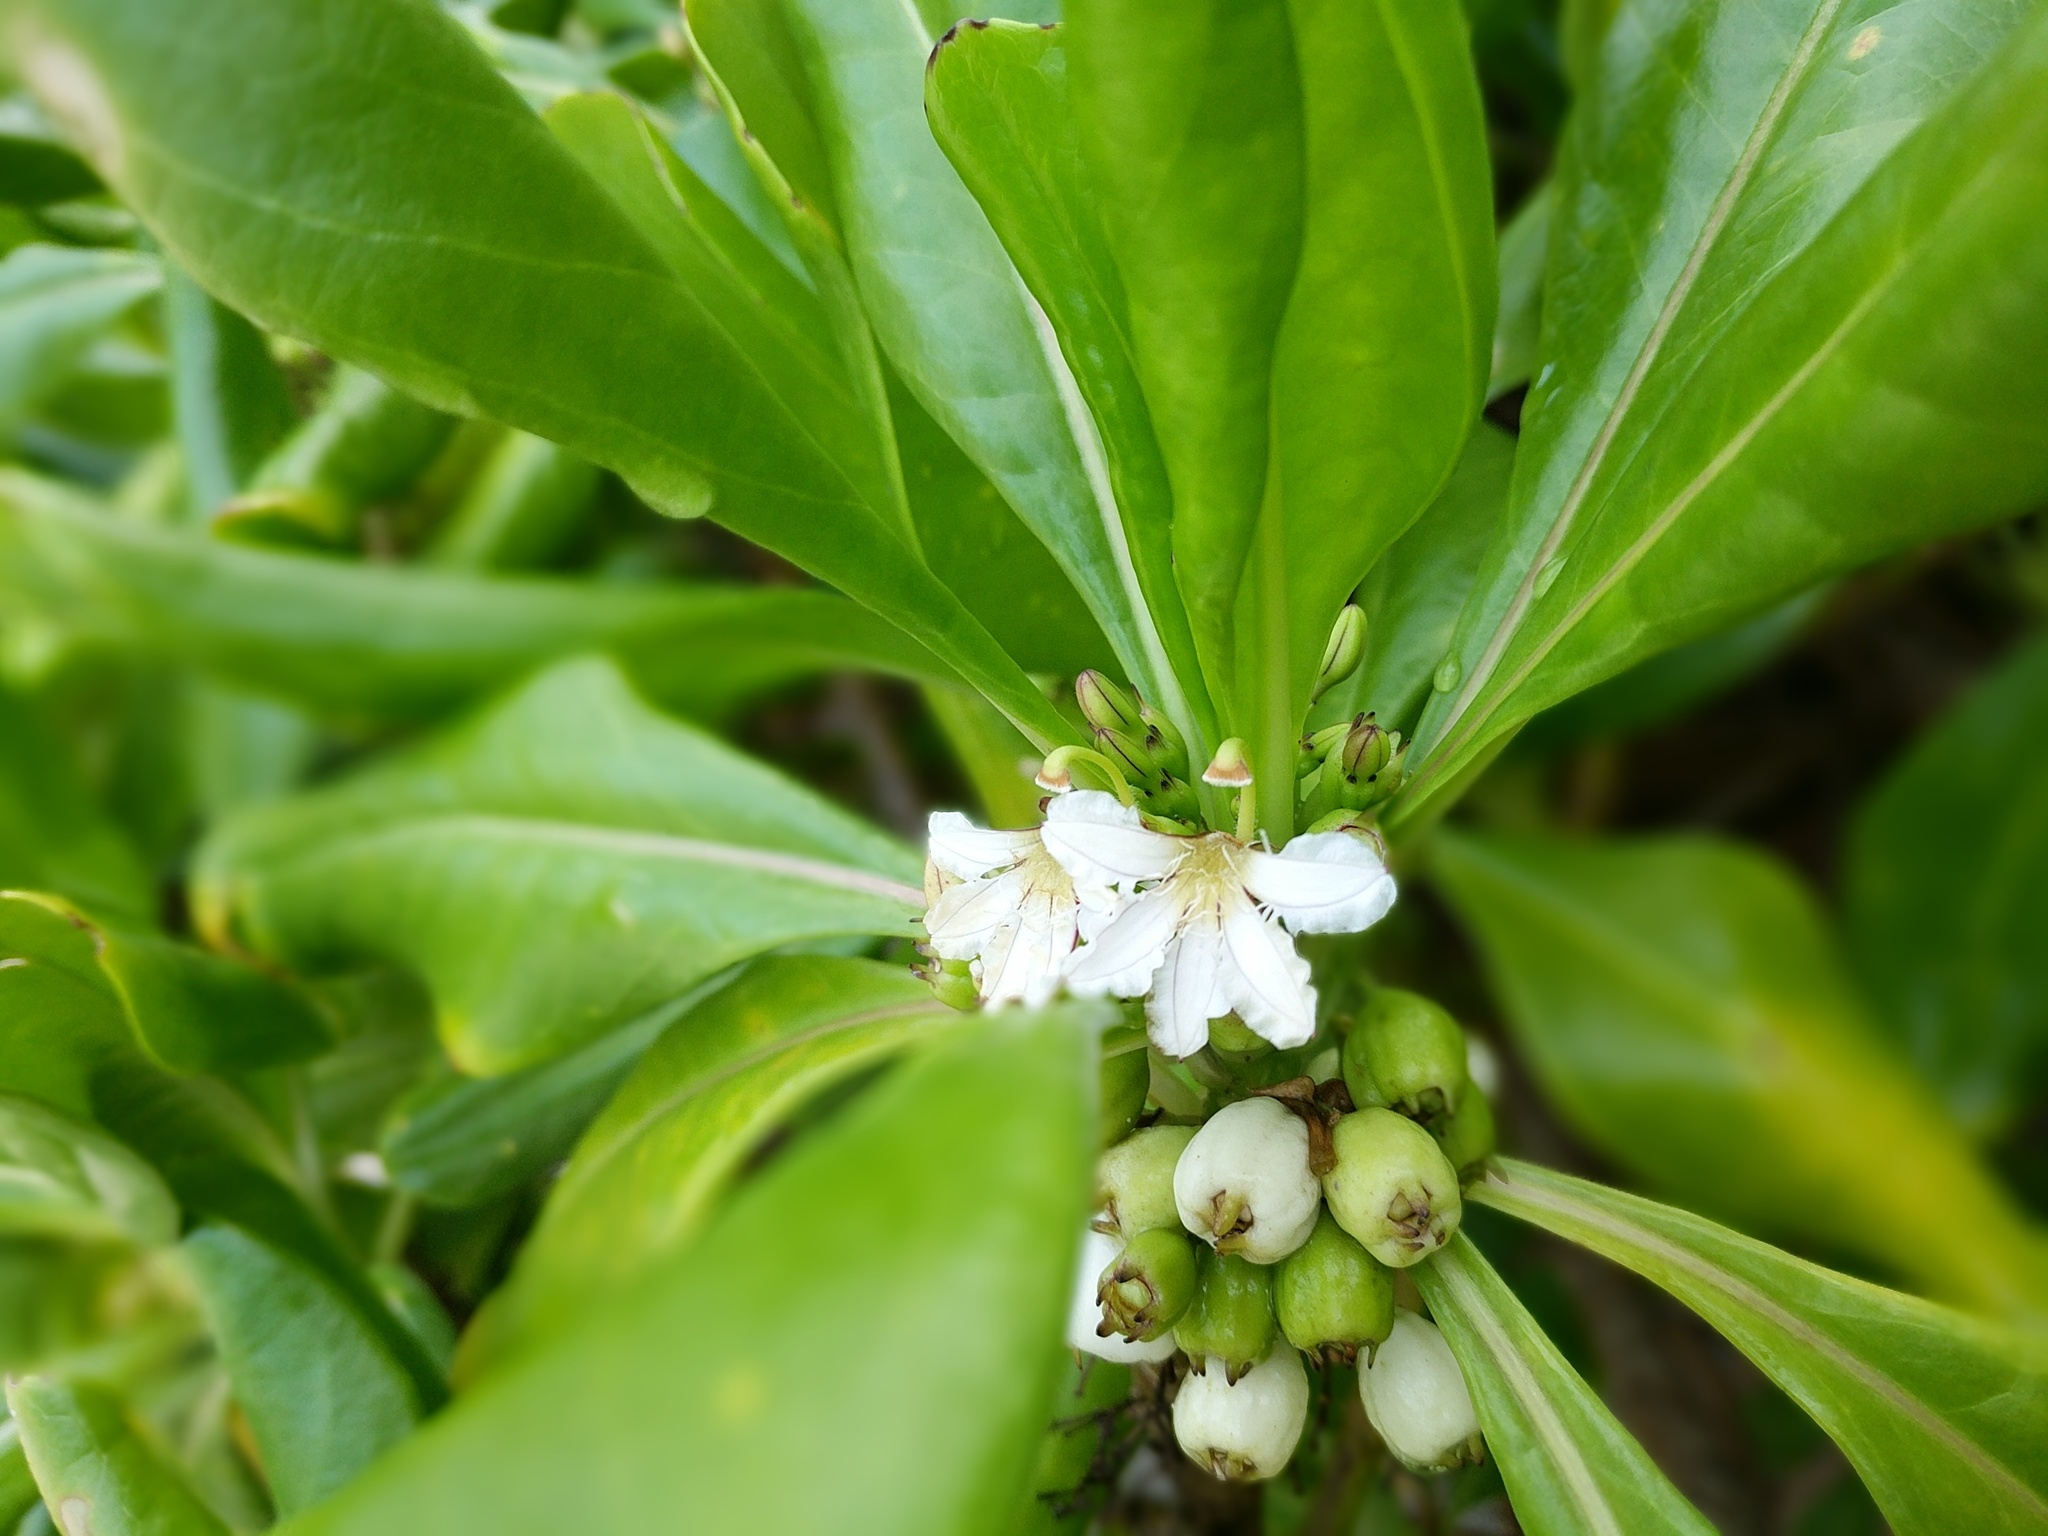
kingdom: Plantae
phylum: Tracheophyta
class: Magnoliopsida
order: Asterales
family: Goodeniaceae
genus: Scaevola
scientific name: Scaevola taccada
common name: Sea lettucetree
